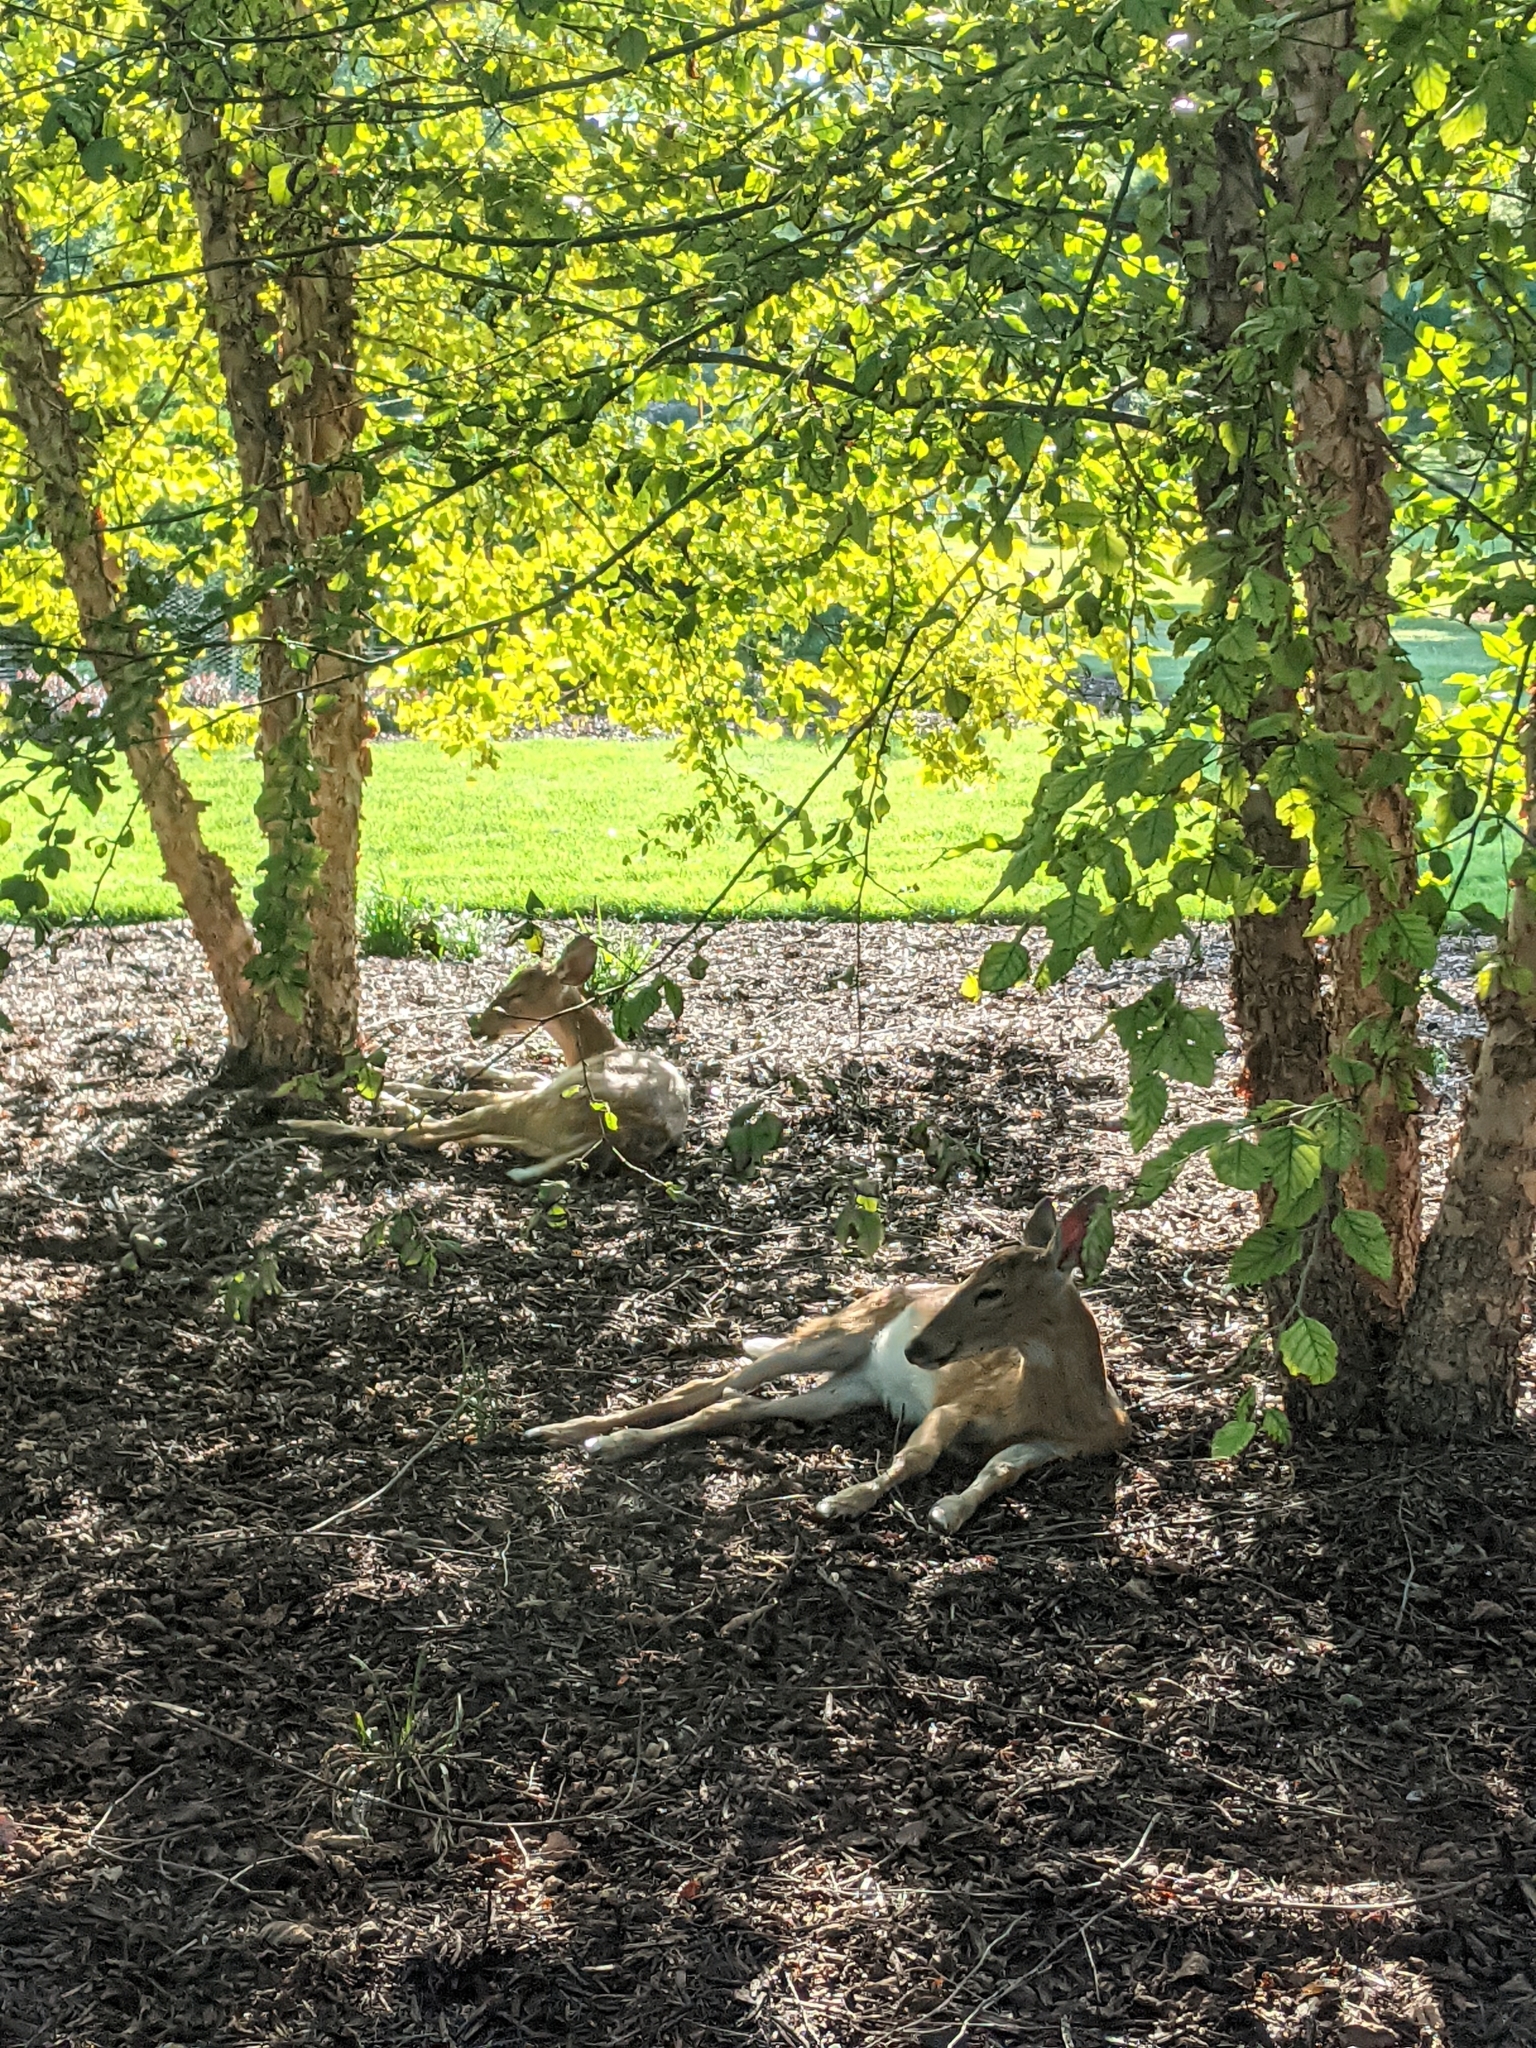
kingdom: Animalia
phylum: Chordata
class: Mammalia
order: Artiodactyla
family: Cervidae
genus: Odocoileus
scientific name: Odocoileus virginianus
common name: White-tailed deer
